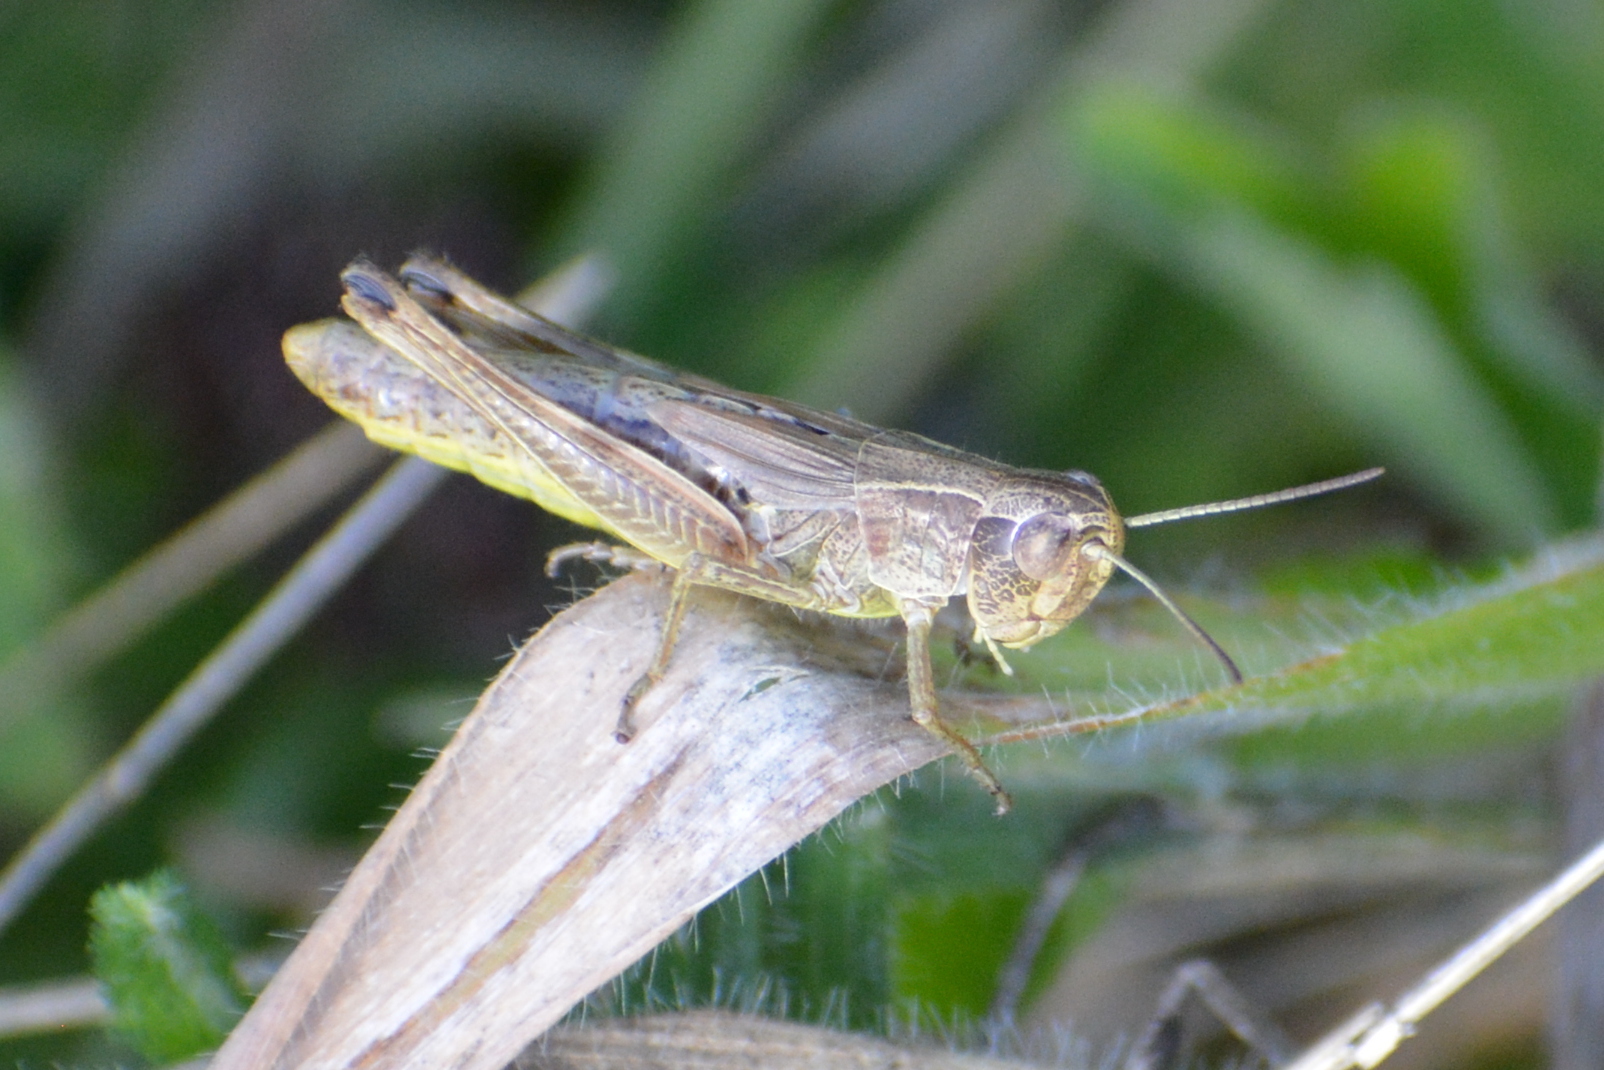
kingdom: Animalia
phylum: Arthropoda
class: Insecta
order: Orthoptera
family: Acrididae
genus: Pseudochorthippus
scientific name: Pseudochorthippus parallelus
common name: Meadow grasshopper
